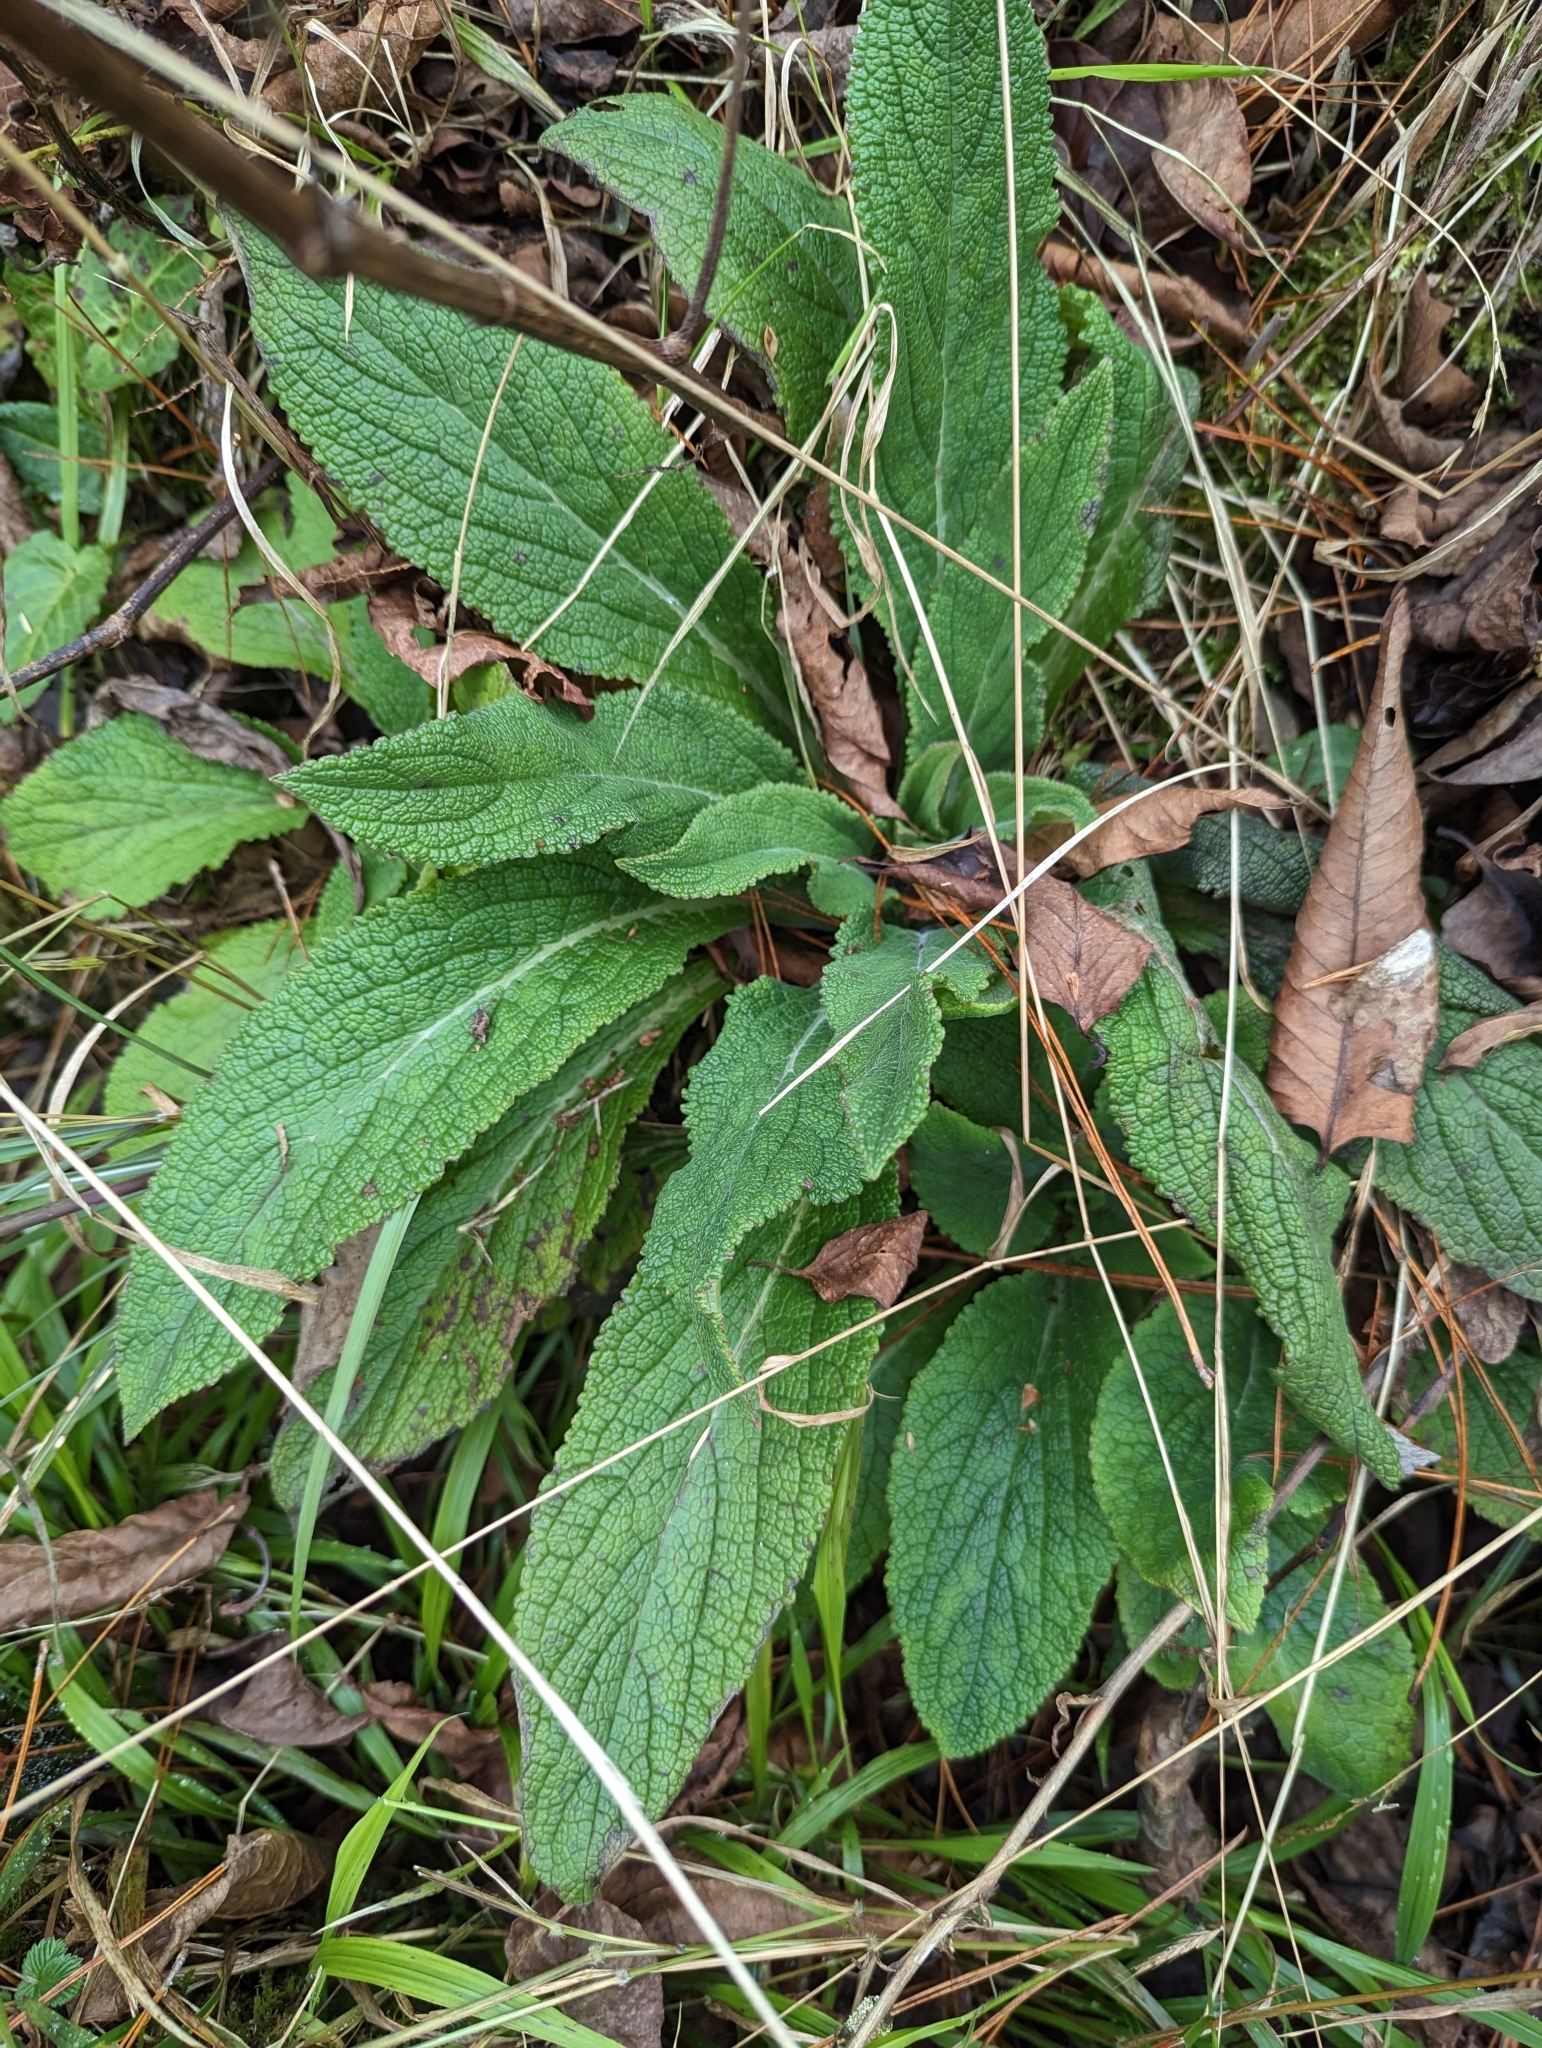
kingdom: Plantae
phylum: Tracheophyta
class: Magnoliopsida
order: Lamiales
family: Plantaginaceae
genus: Digitalis
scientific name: Digitalis purpurea
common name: Foxglove
